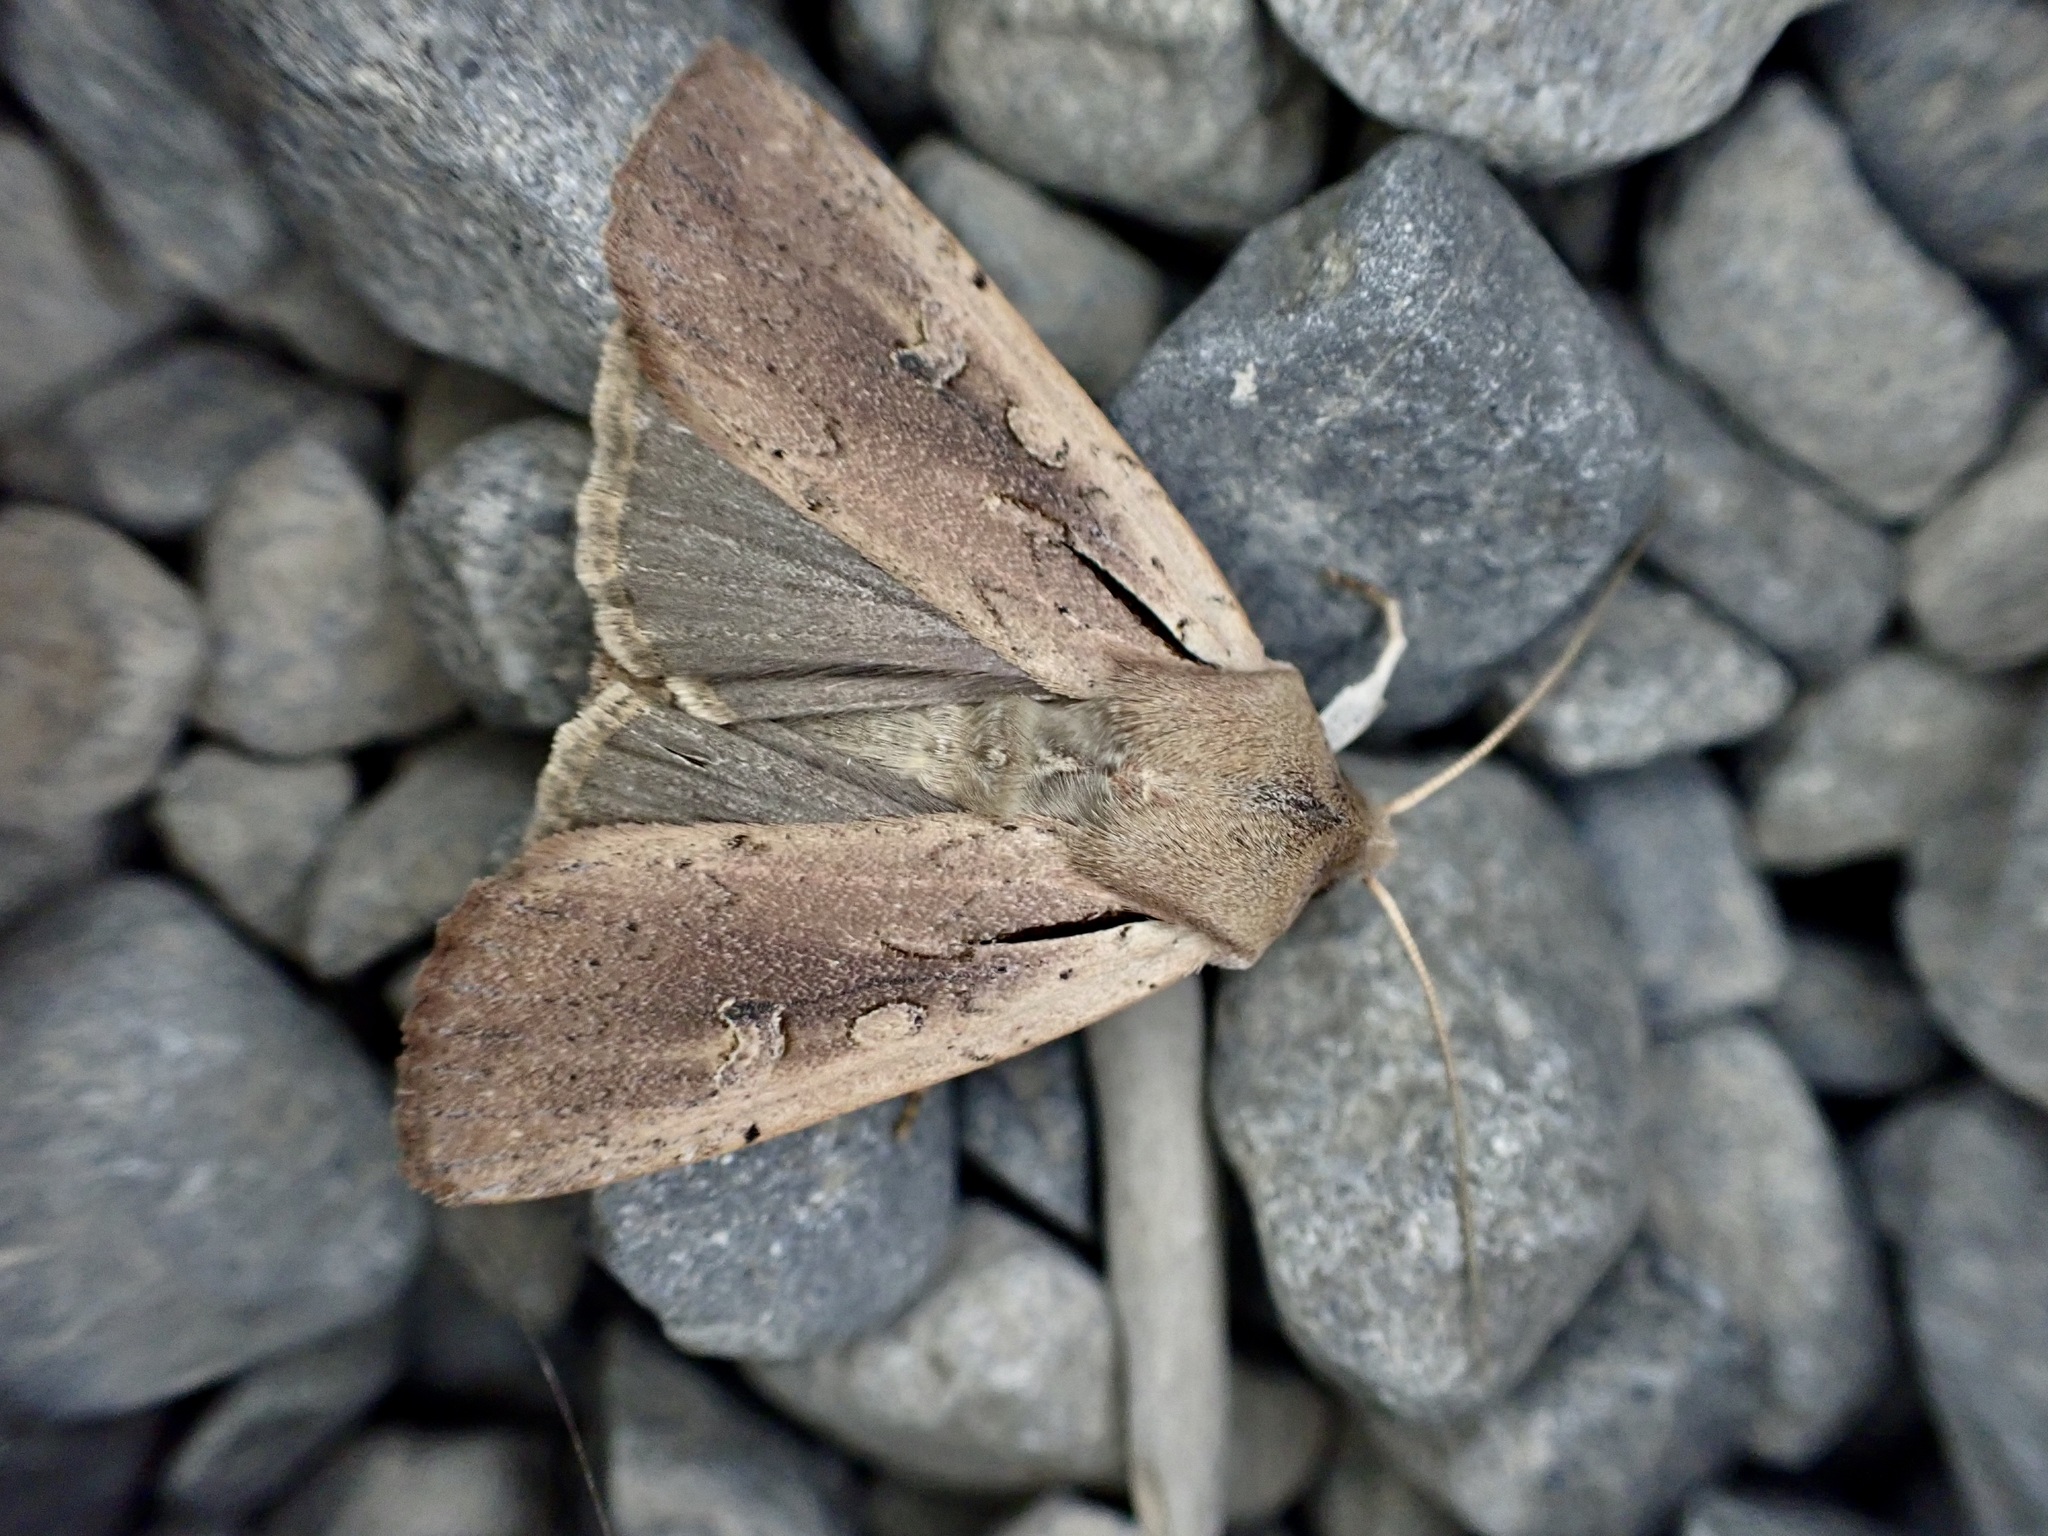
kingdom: Animalia
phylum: Arthropoda
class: Insecta
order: Lepidoptera
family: Noctuidae
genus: Ichneutica
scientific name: Ichneutica atristriga
